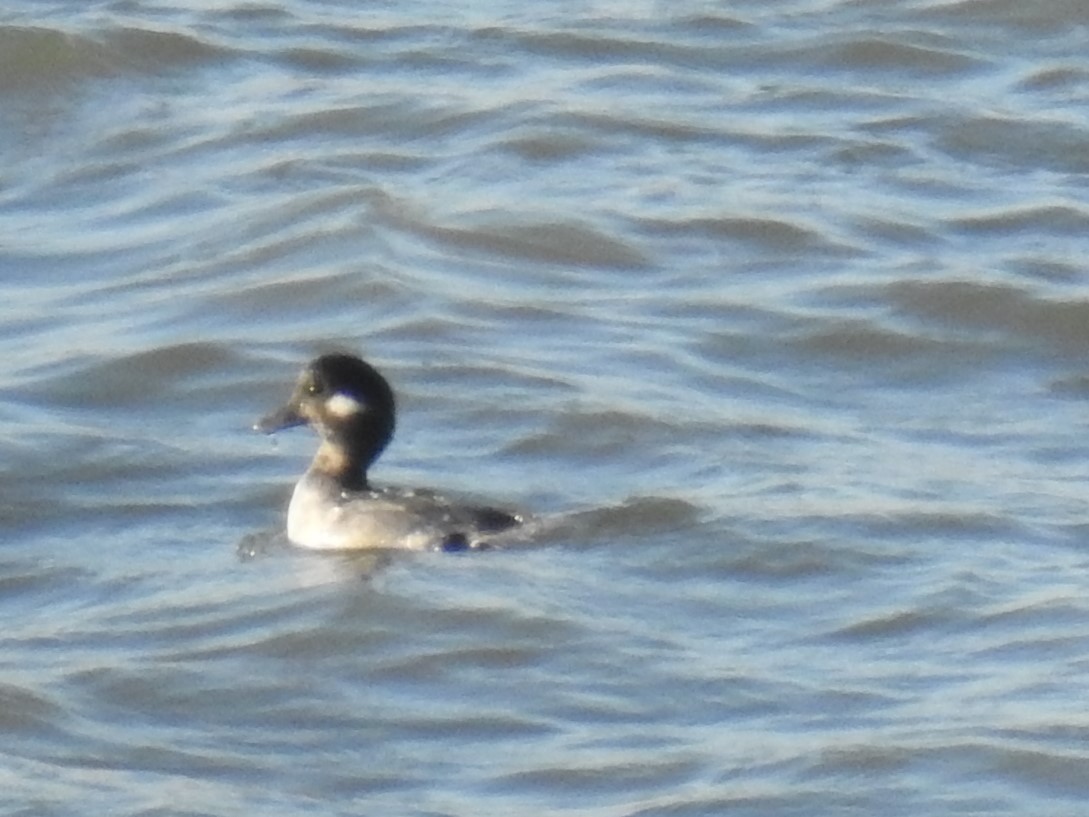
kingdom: Animalia
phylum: Chordata
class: Aves
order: Anseriformes
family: Anatidae
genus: Bucephala
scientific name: Bucephala albeola
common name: Bufflehead
